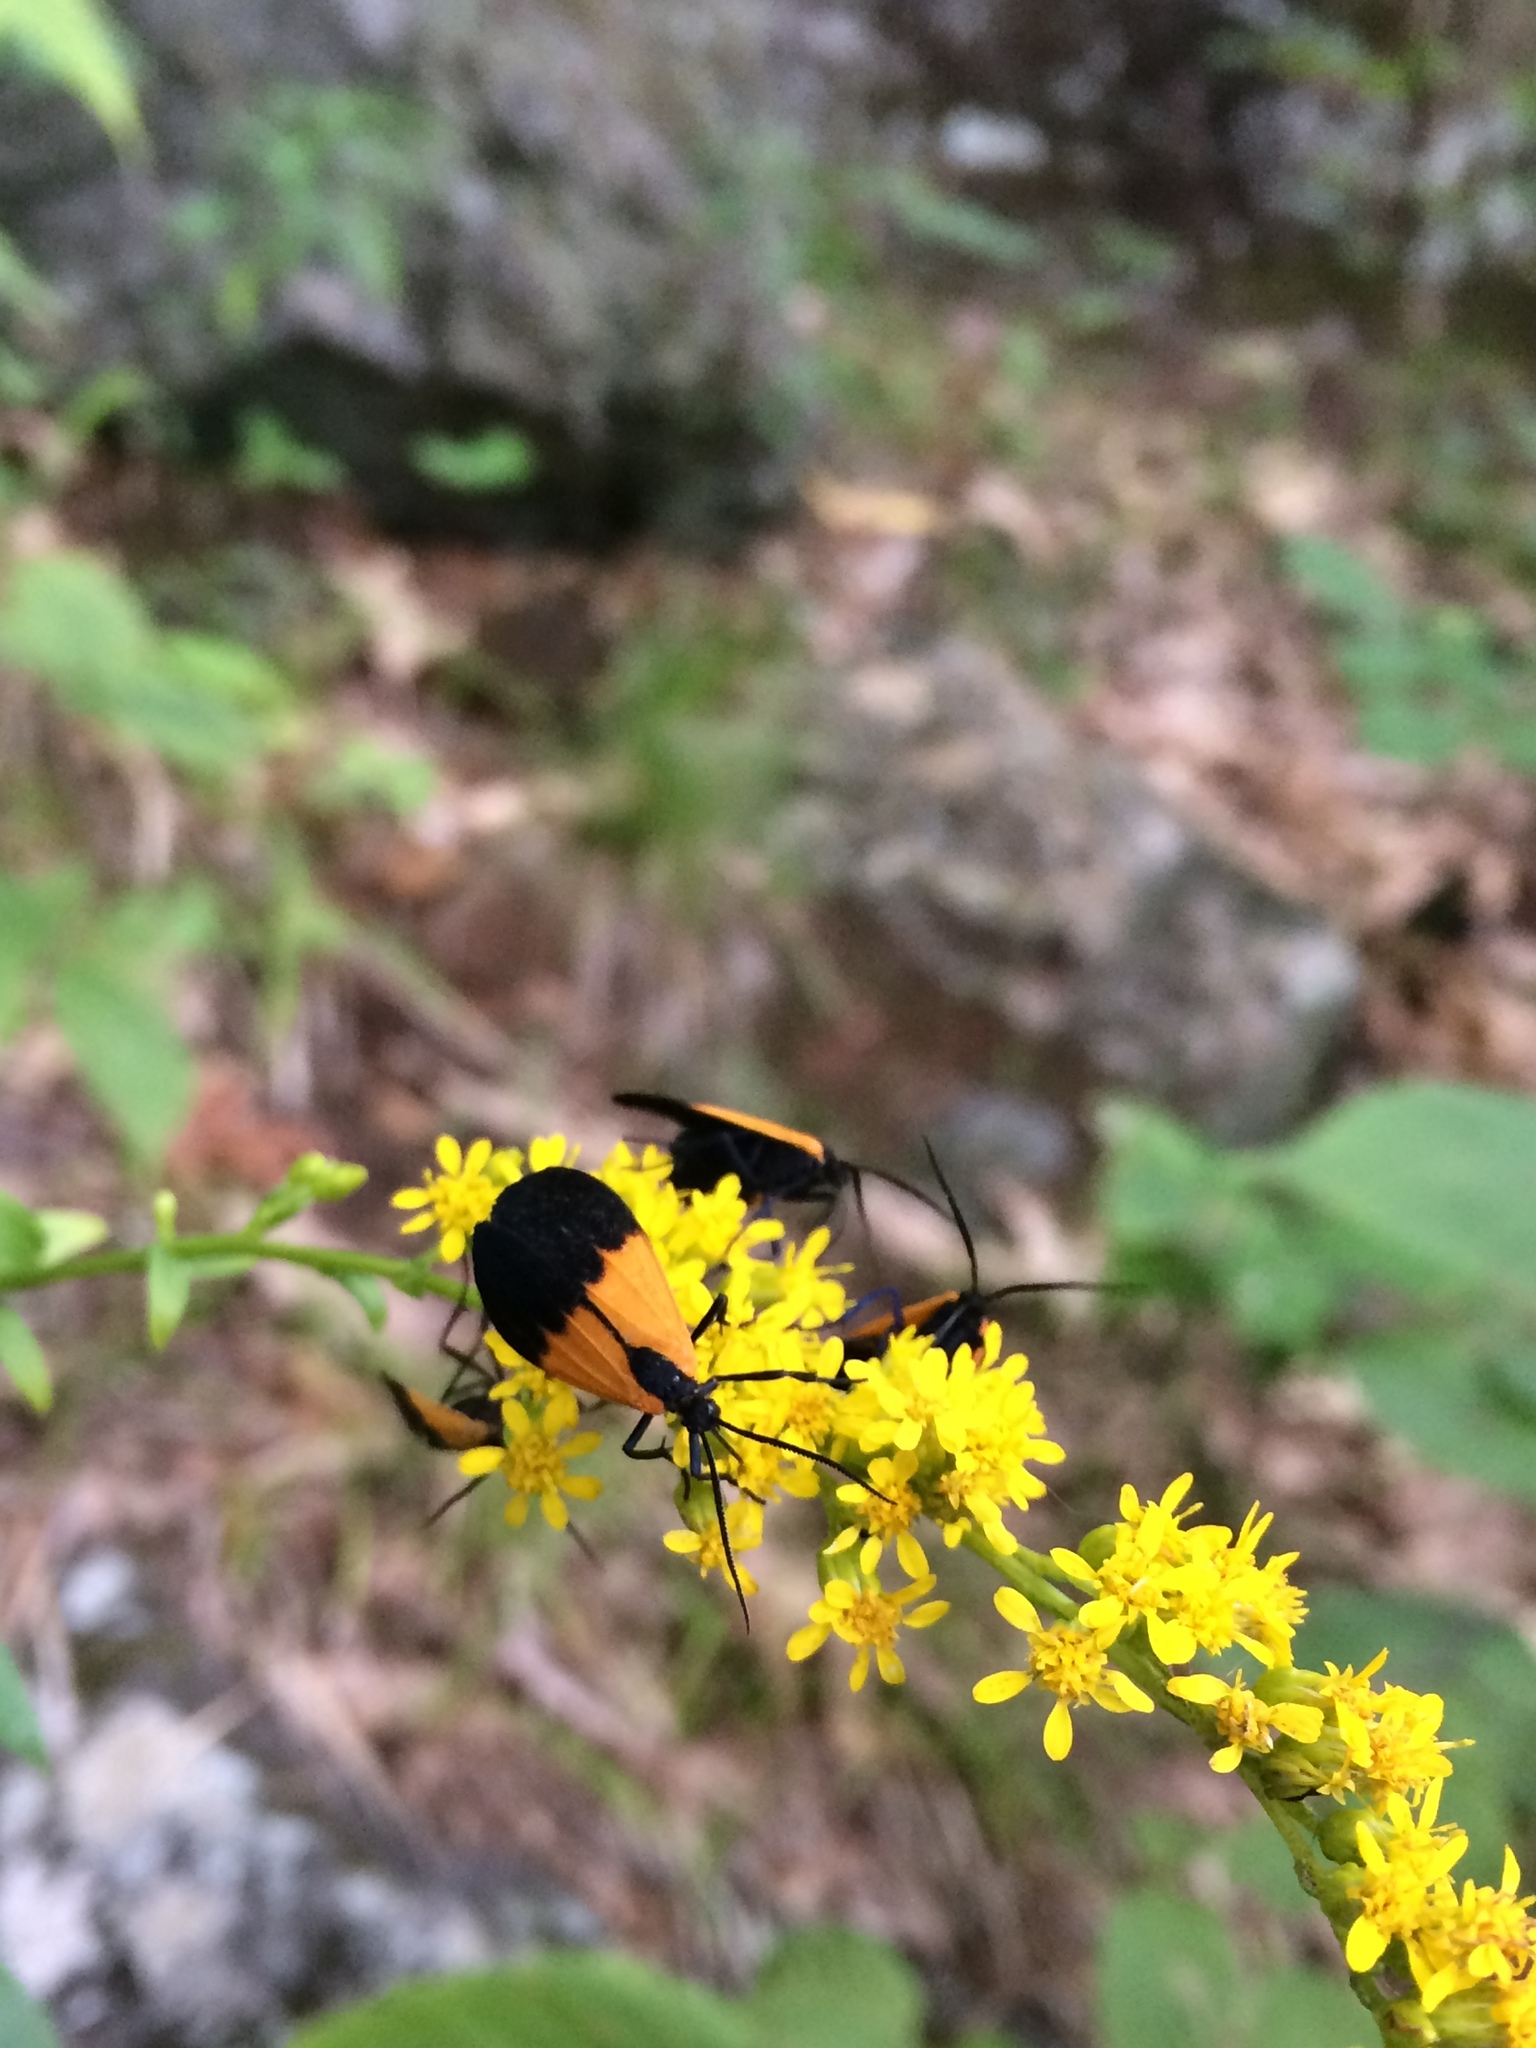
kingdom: Animalia
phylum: Arthropoda
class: Insecta
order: Lepidoptera
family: Erebidae
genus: Lycomorpha
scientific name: Lycomorpha pholus
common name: Black-and-yellow lichen moth
